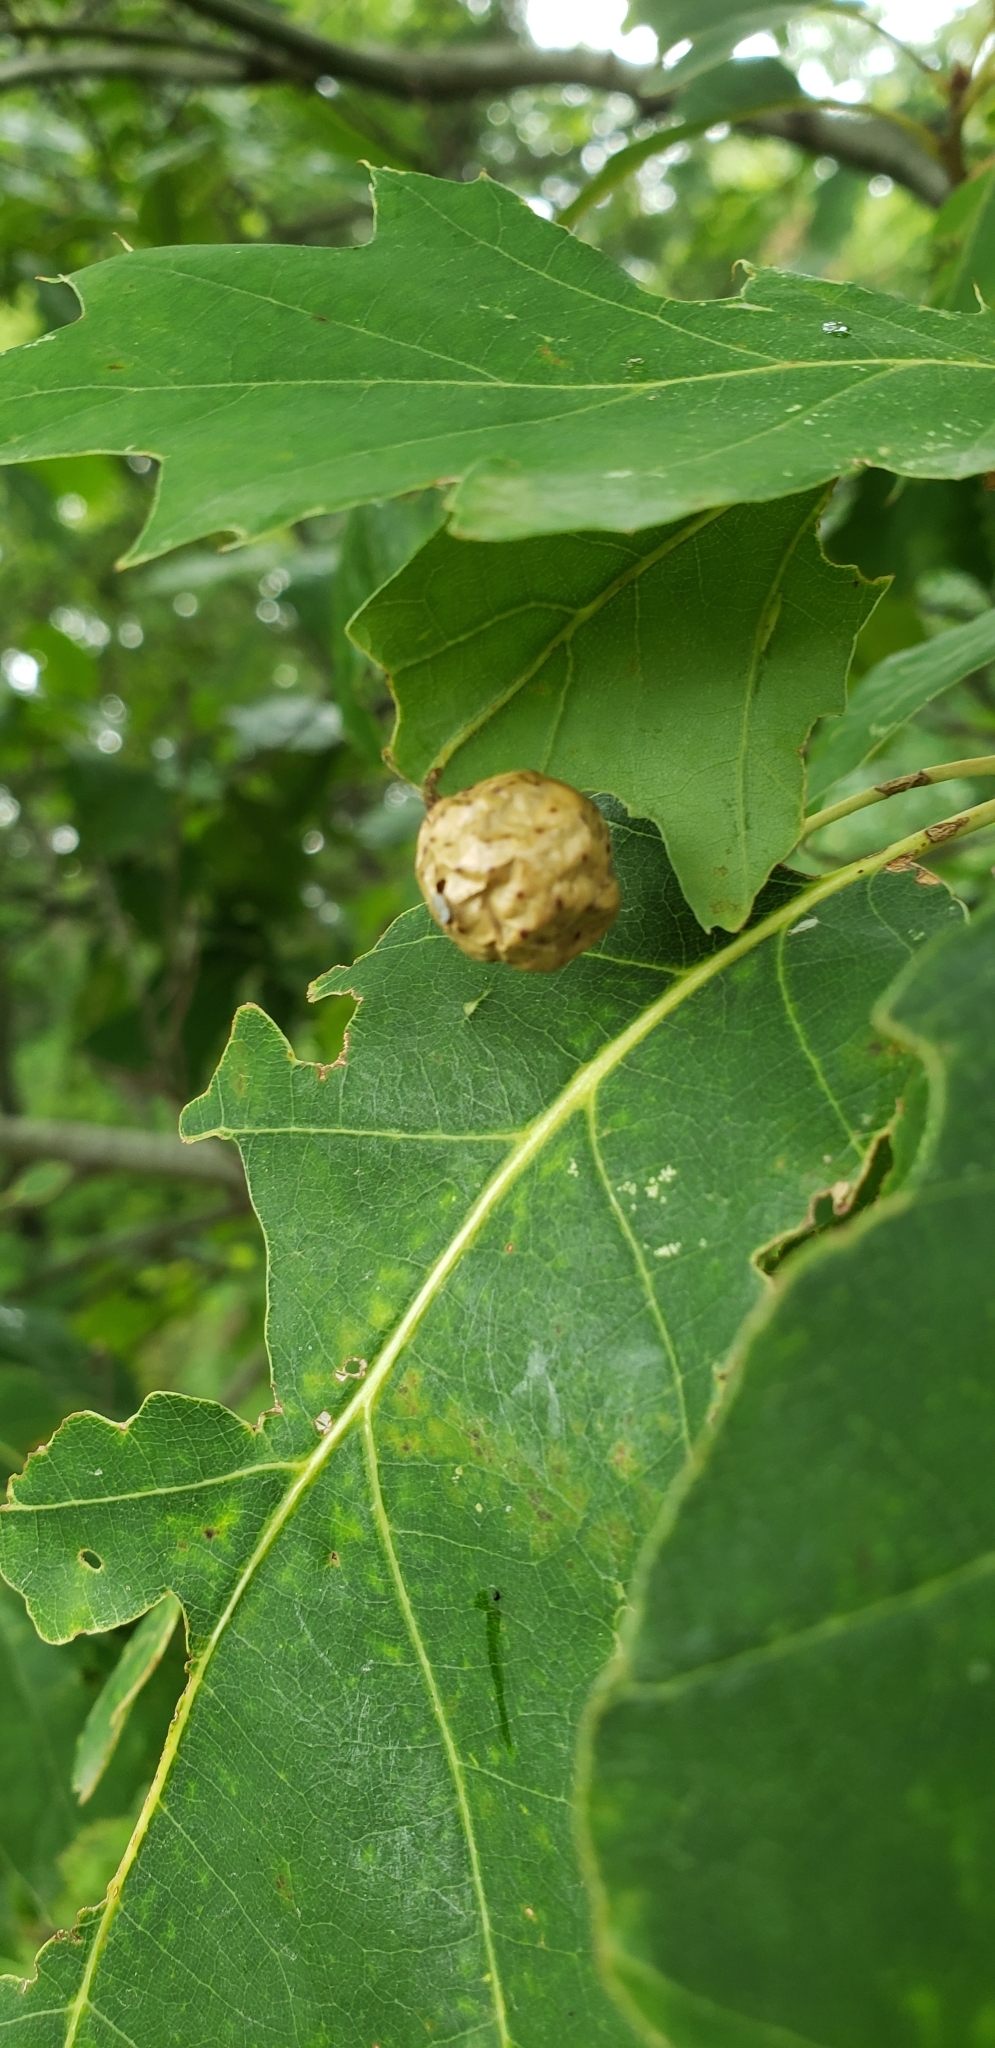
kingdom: Animalia
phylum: Arthropoda
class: Insecta
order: Hymenoptera
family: Cynipidae
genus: Amphibolips
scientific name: Amphibolips
